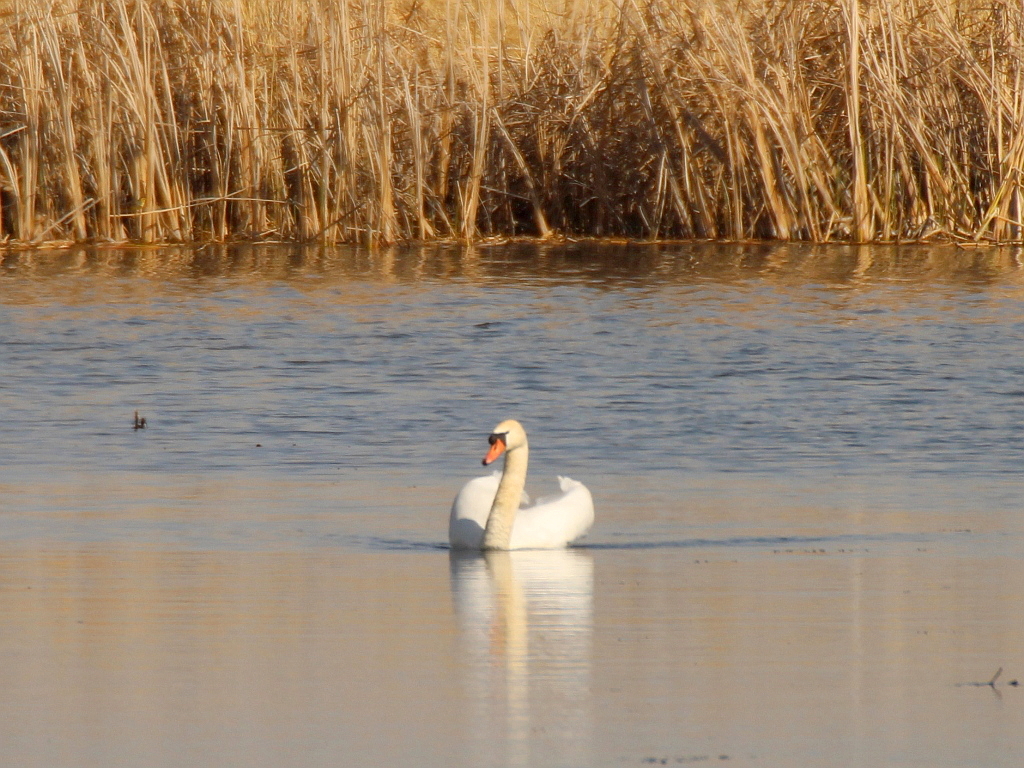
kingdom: Animalia
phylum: Chordata
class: Aves
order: Anseriformes
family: Anatidae
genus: Cygnus
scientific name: Cygnus olor
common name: Mute swan
